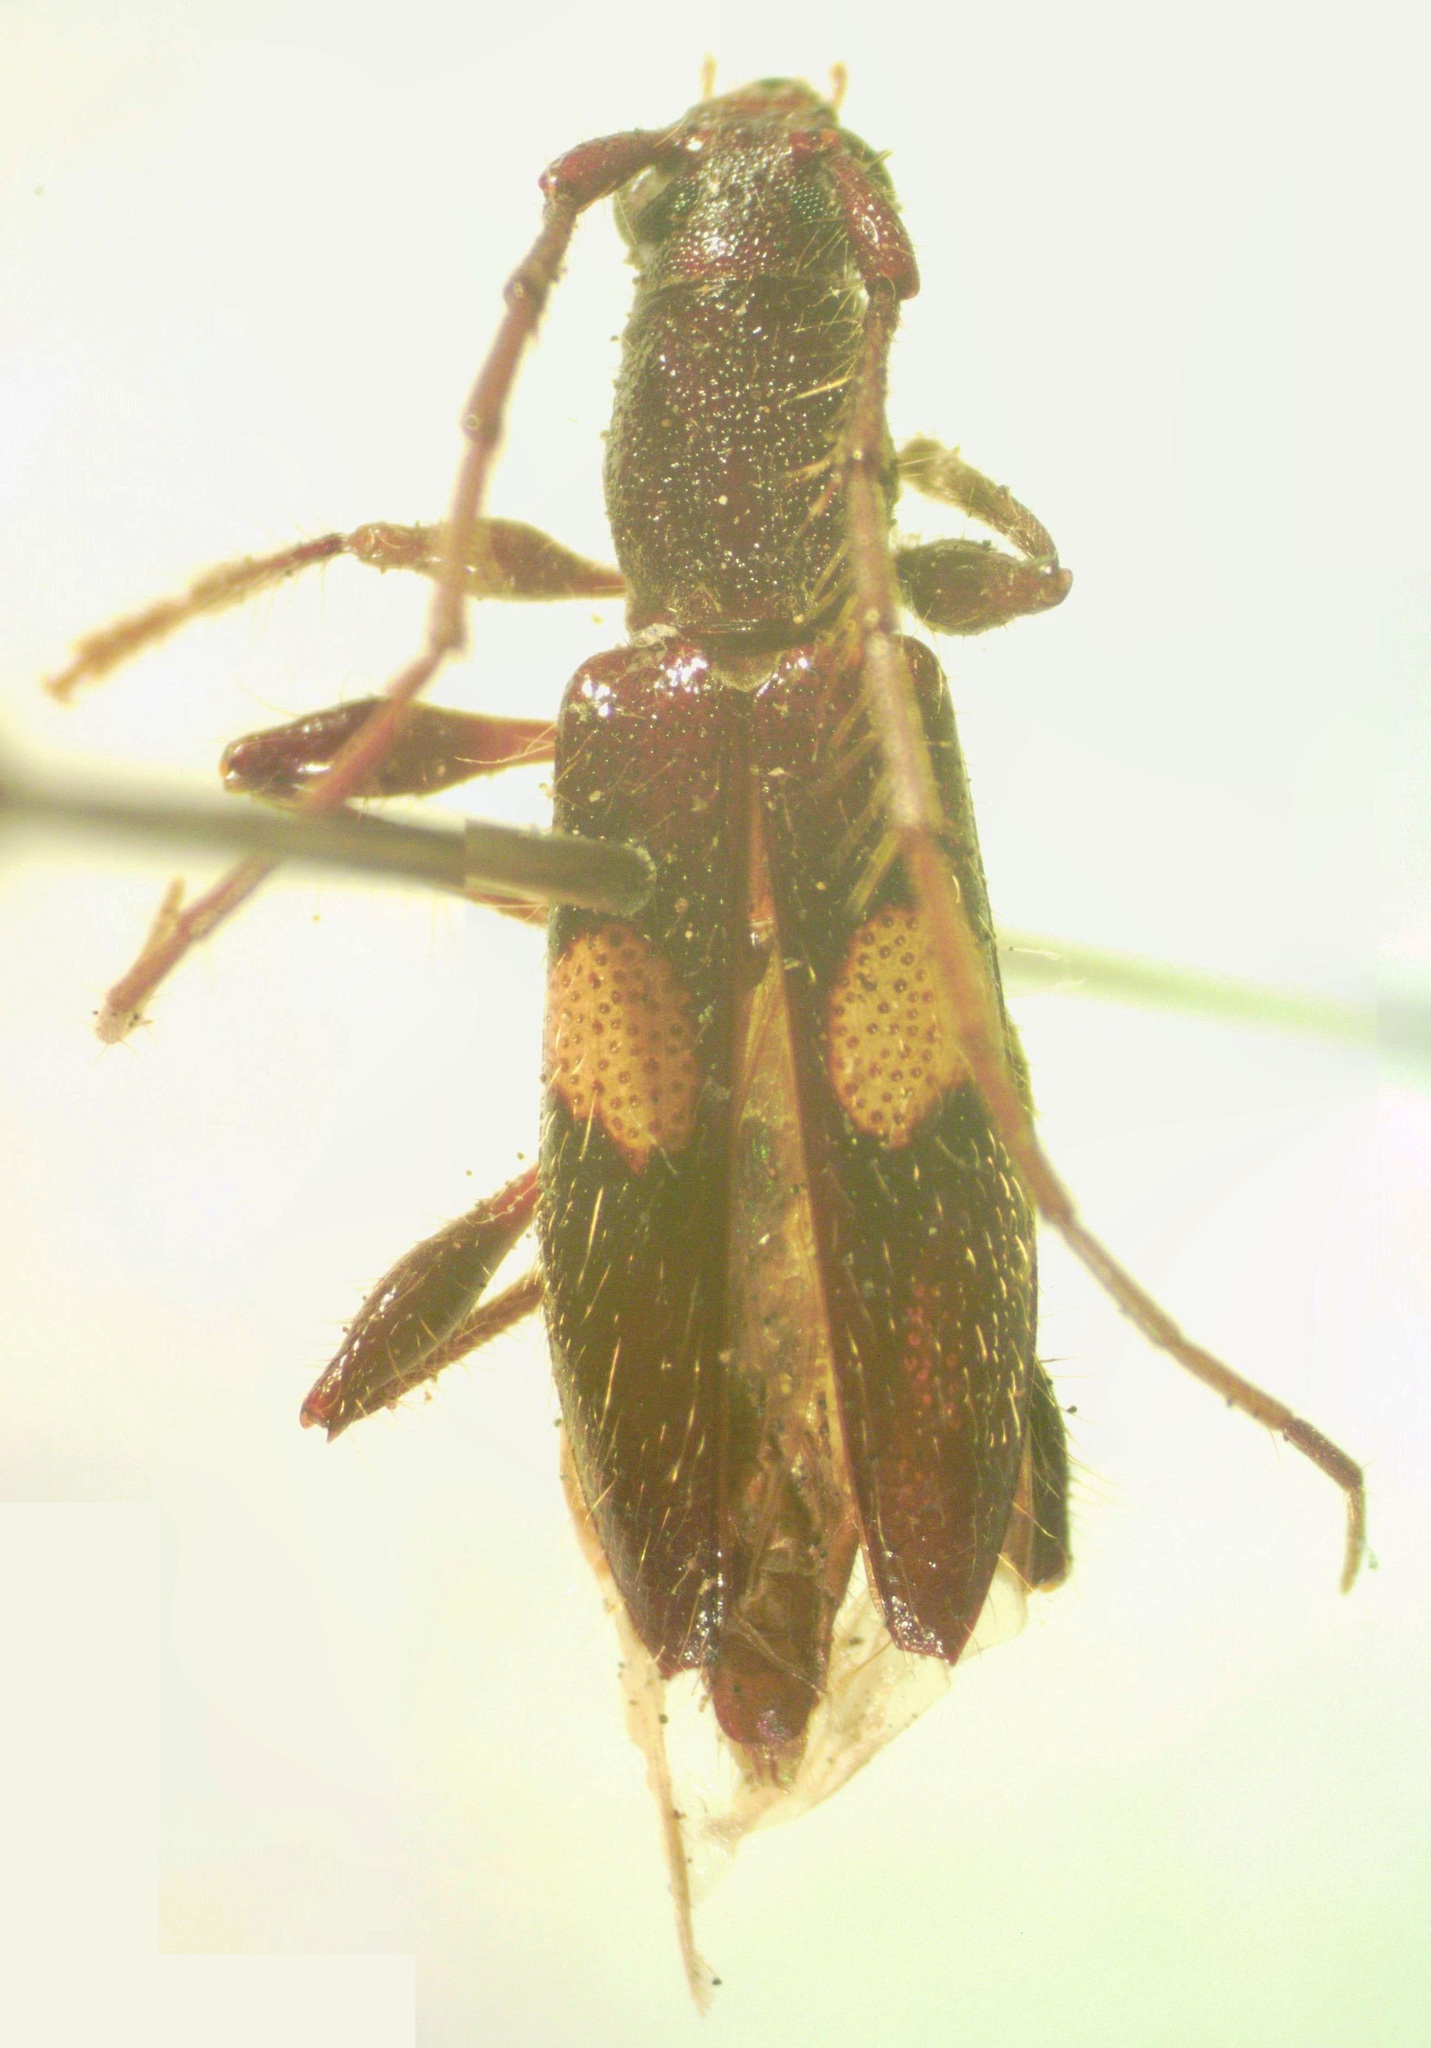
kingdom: Animalia
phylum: Arthropoda
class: Insecta
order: Coleoptera
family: Cerambycidae
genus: Micropsyrassa
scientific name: Micropsyrassa bimaculata
